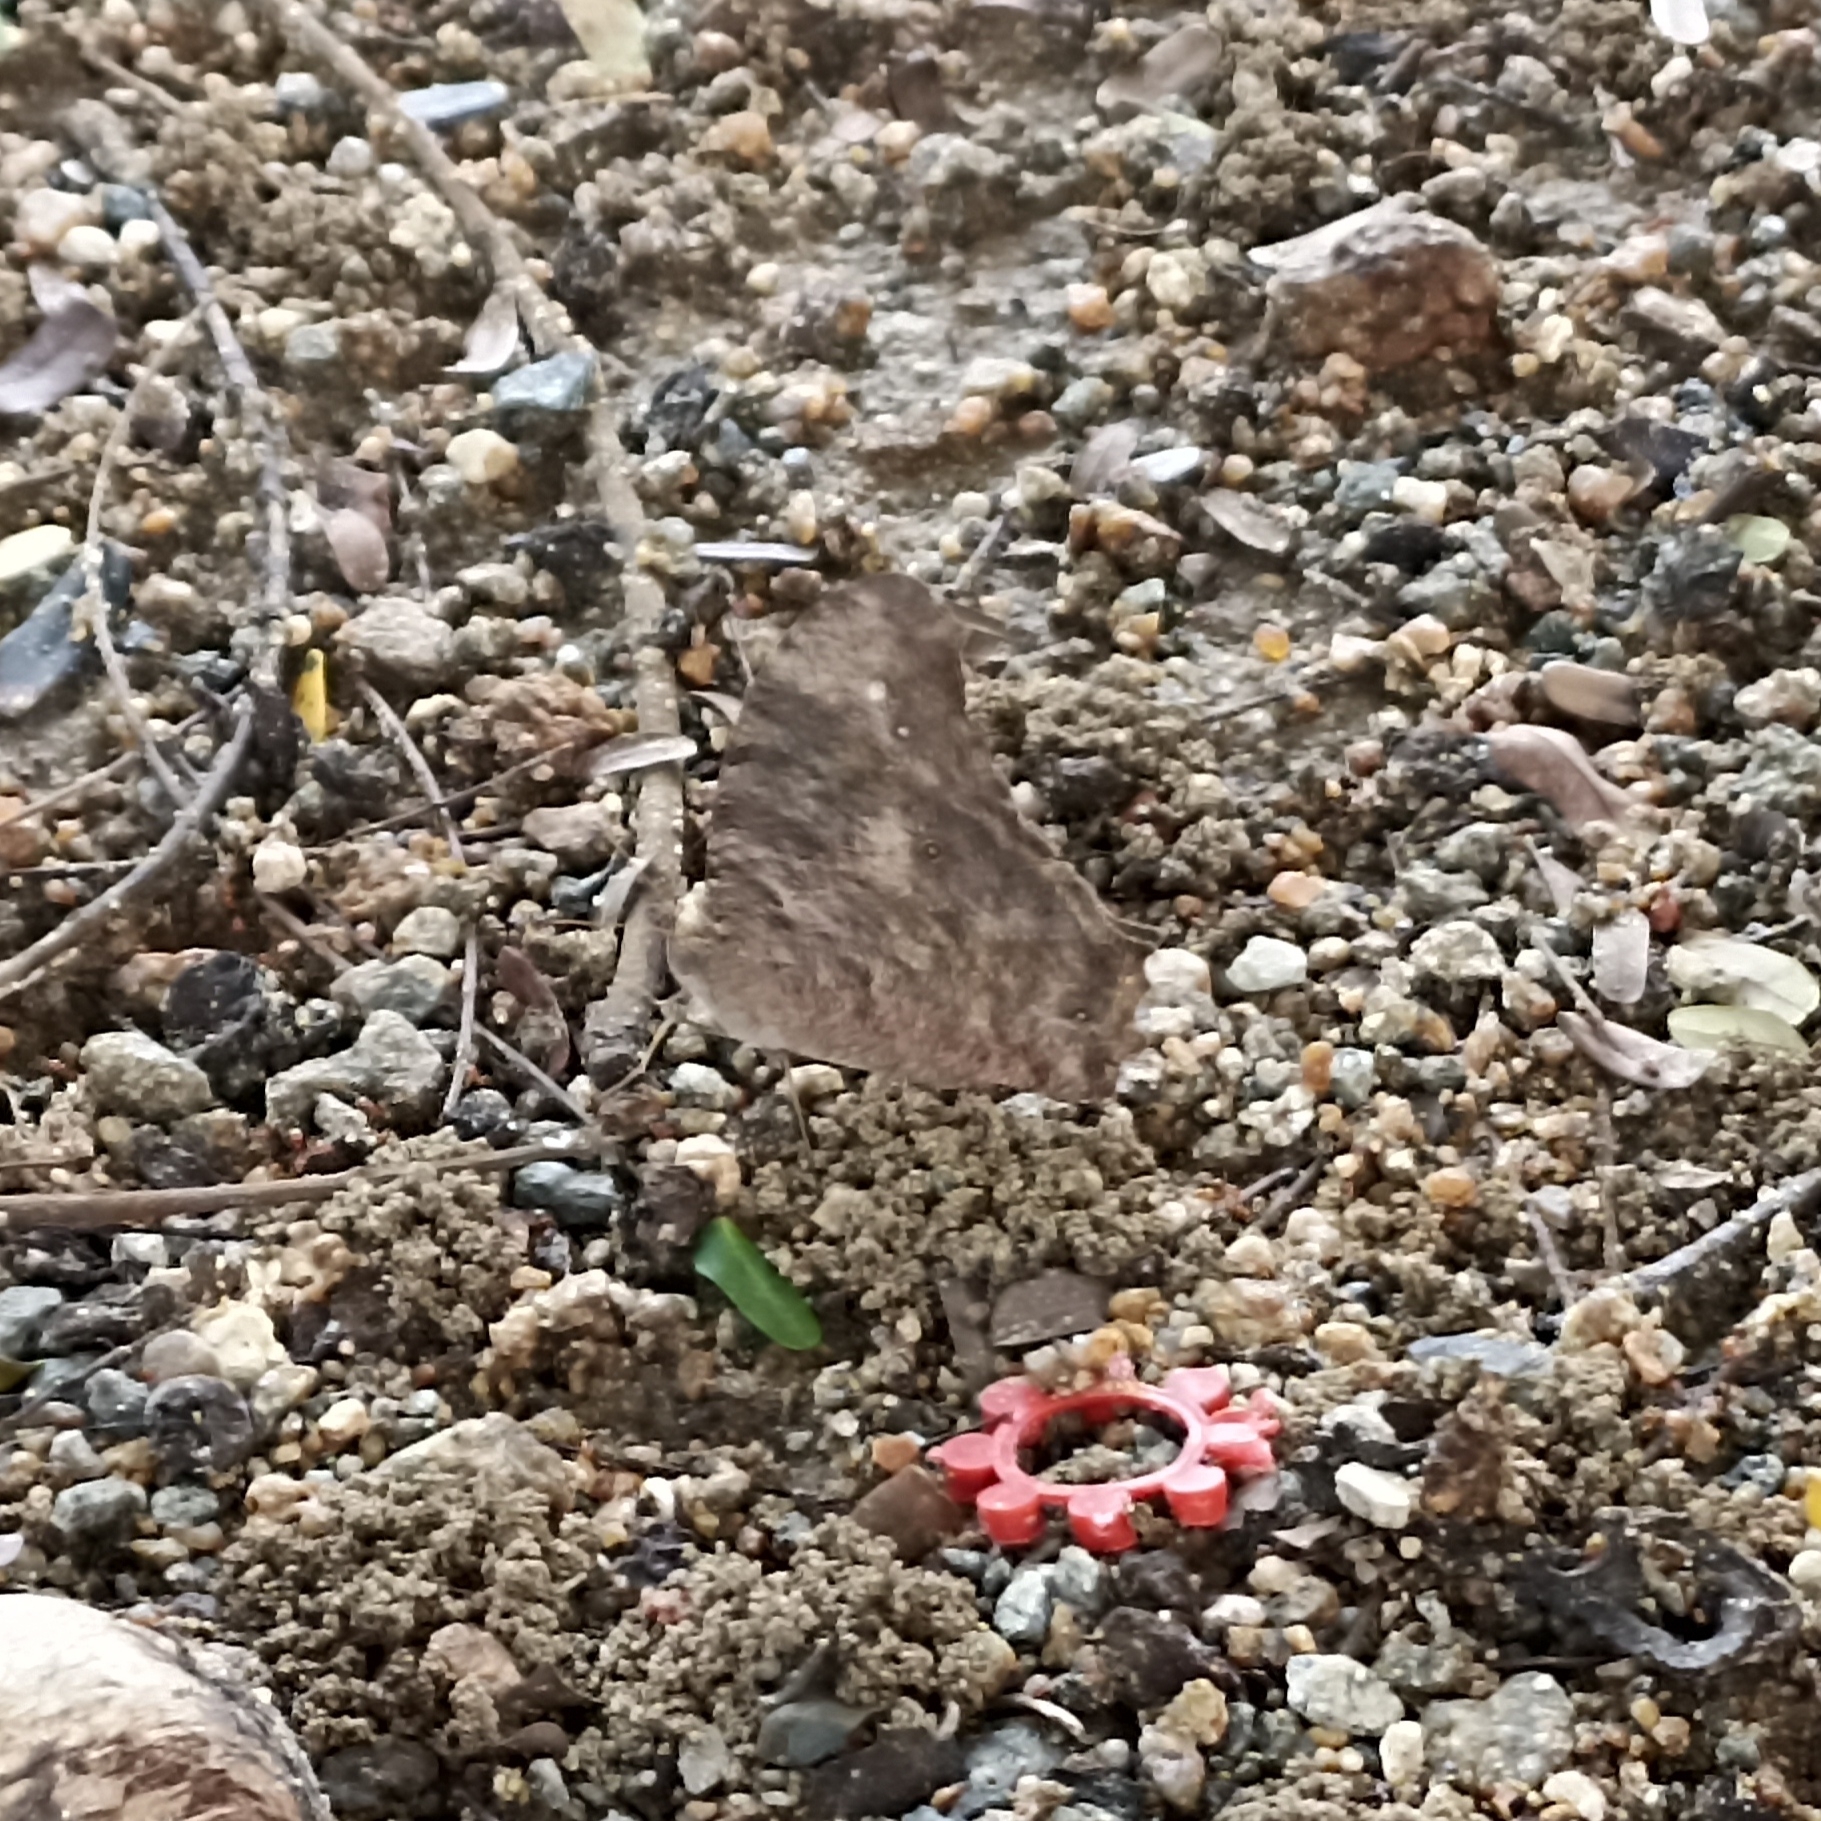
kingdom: Animalia
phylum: Arthropoda
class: Insecta
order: Lepidoptera
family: Nymphalidae
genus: Melanitis
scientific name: Melanitis leda
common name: Twilight brown
